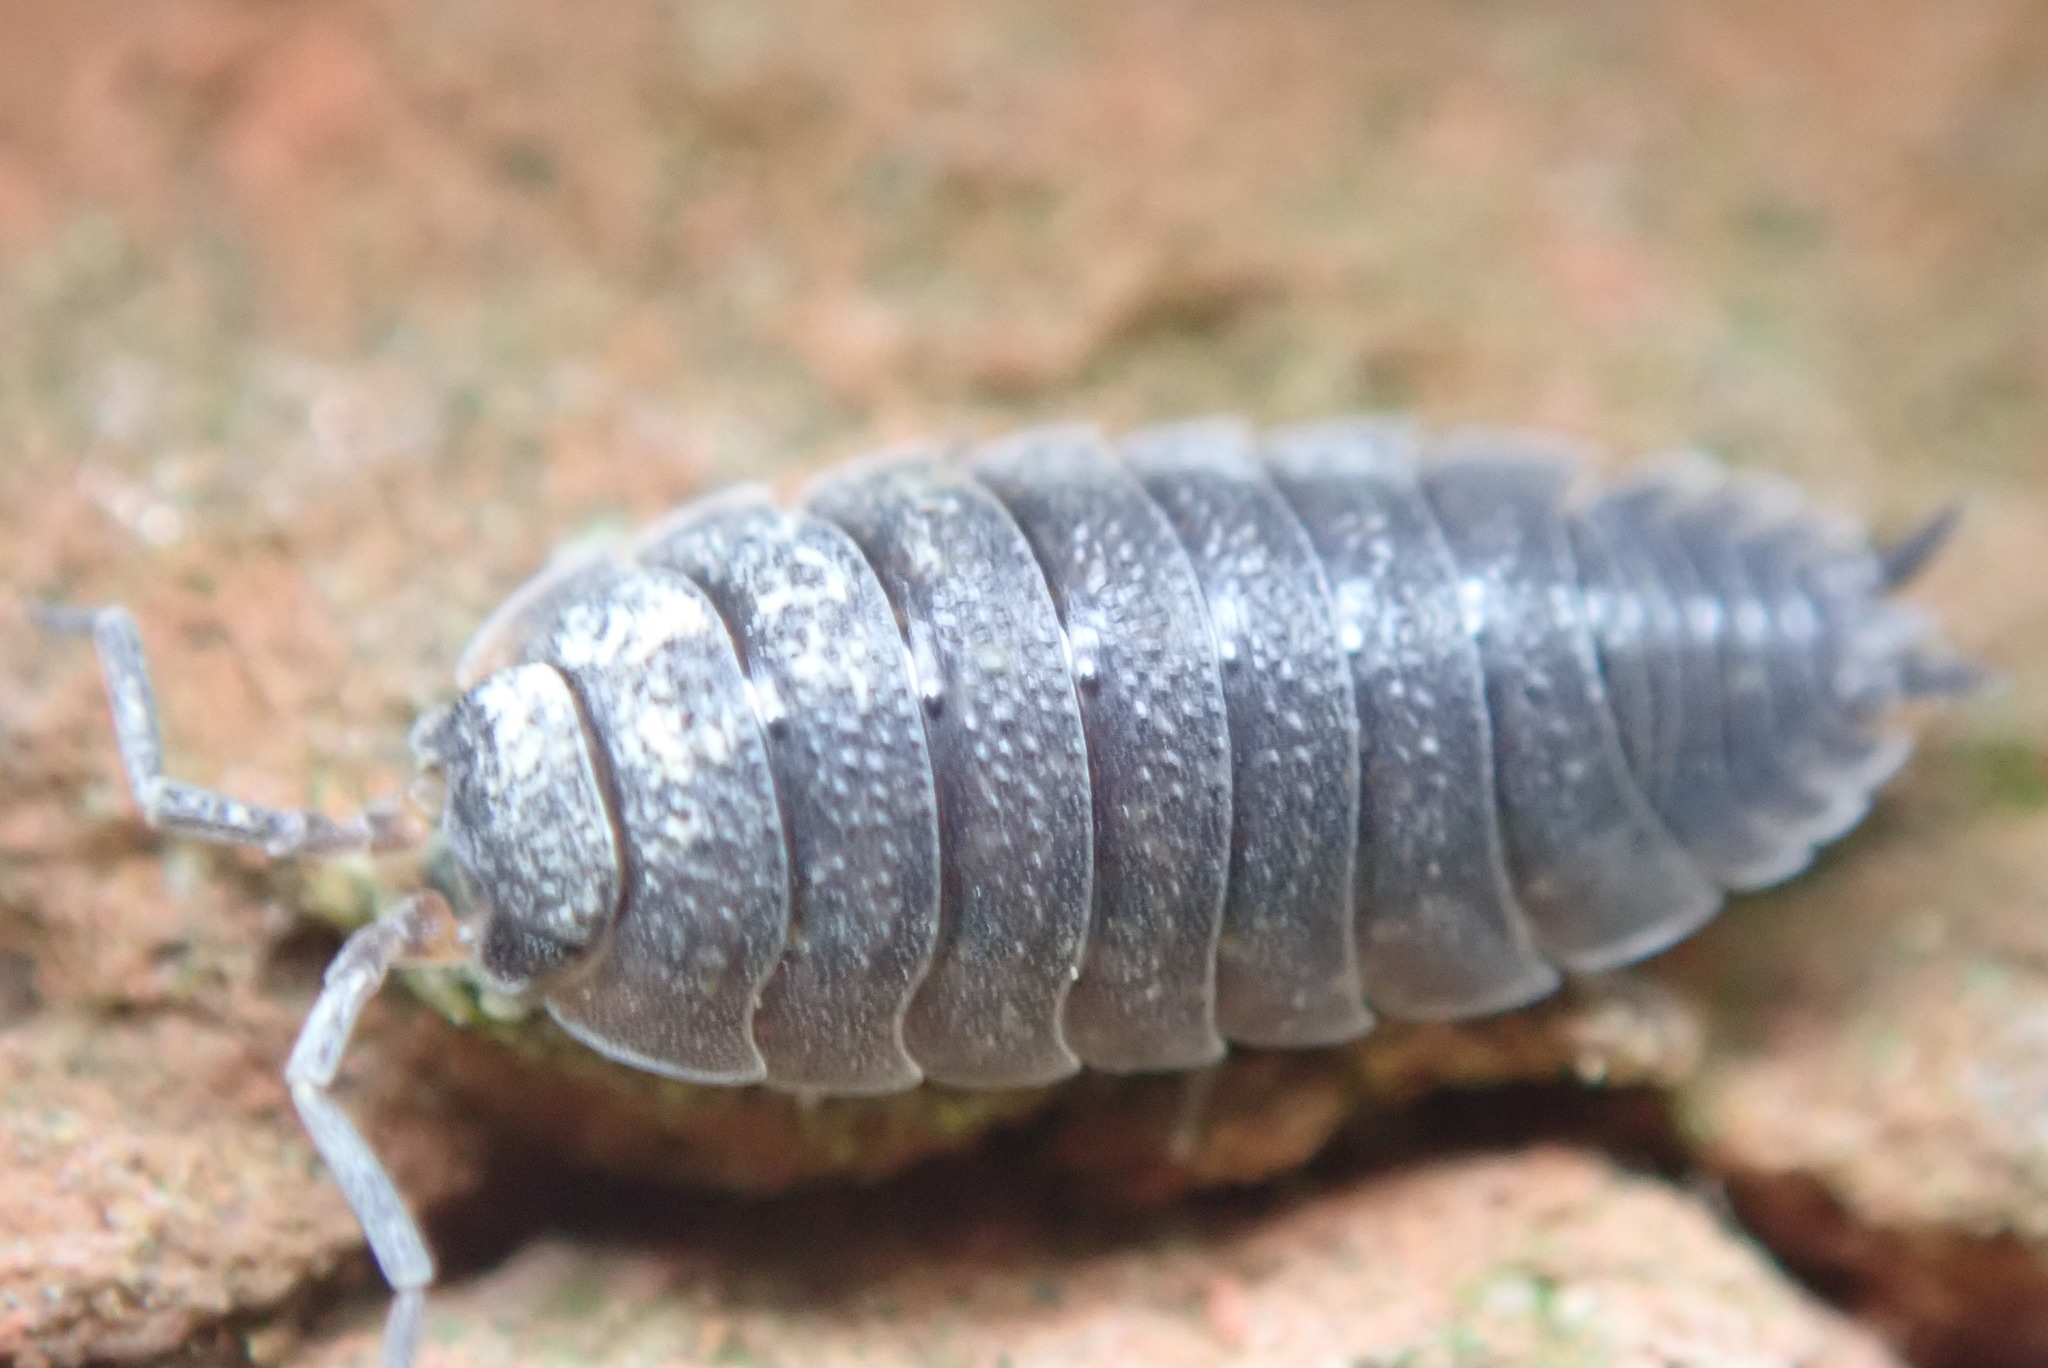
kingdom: Animalia
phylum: Arthropoda
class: Malacostraca
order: Isopoda
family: Porcellionidae
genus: Porcellio
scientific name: Porcellio scaber
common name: Common rough woodlouse
